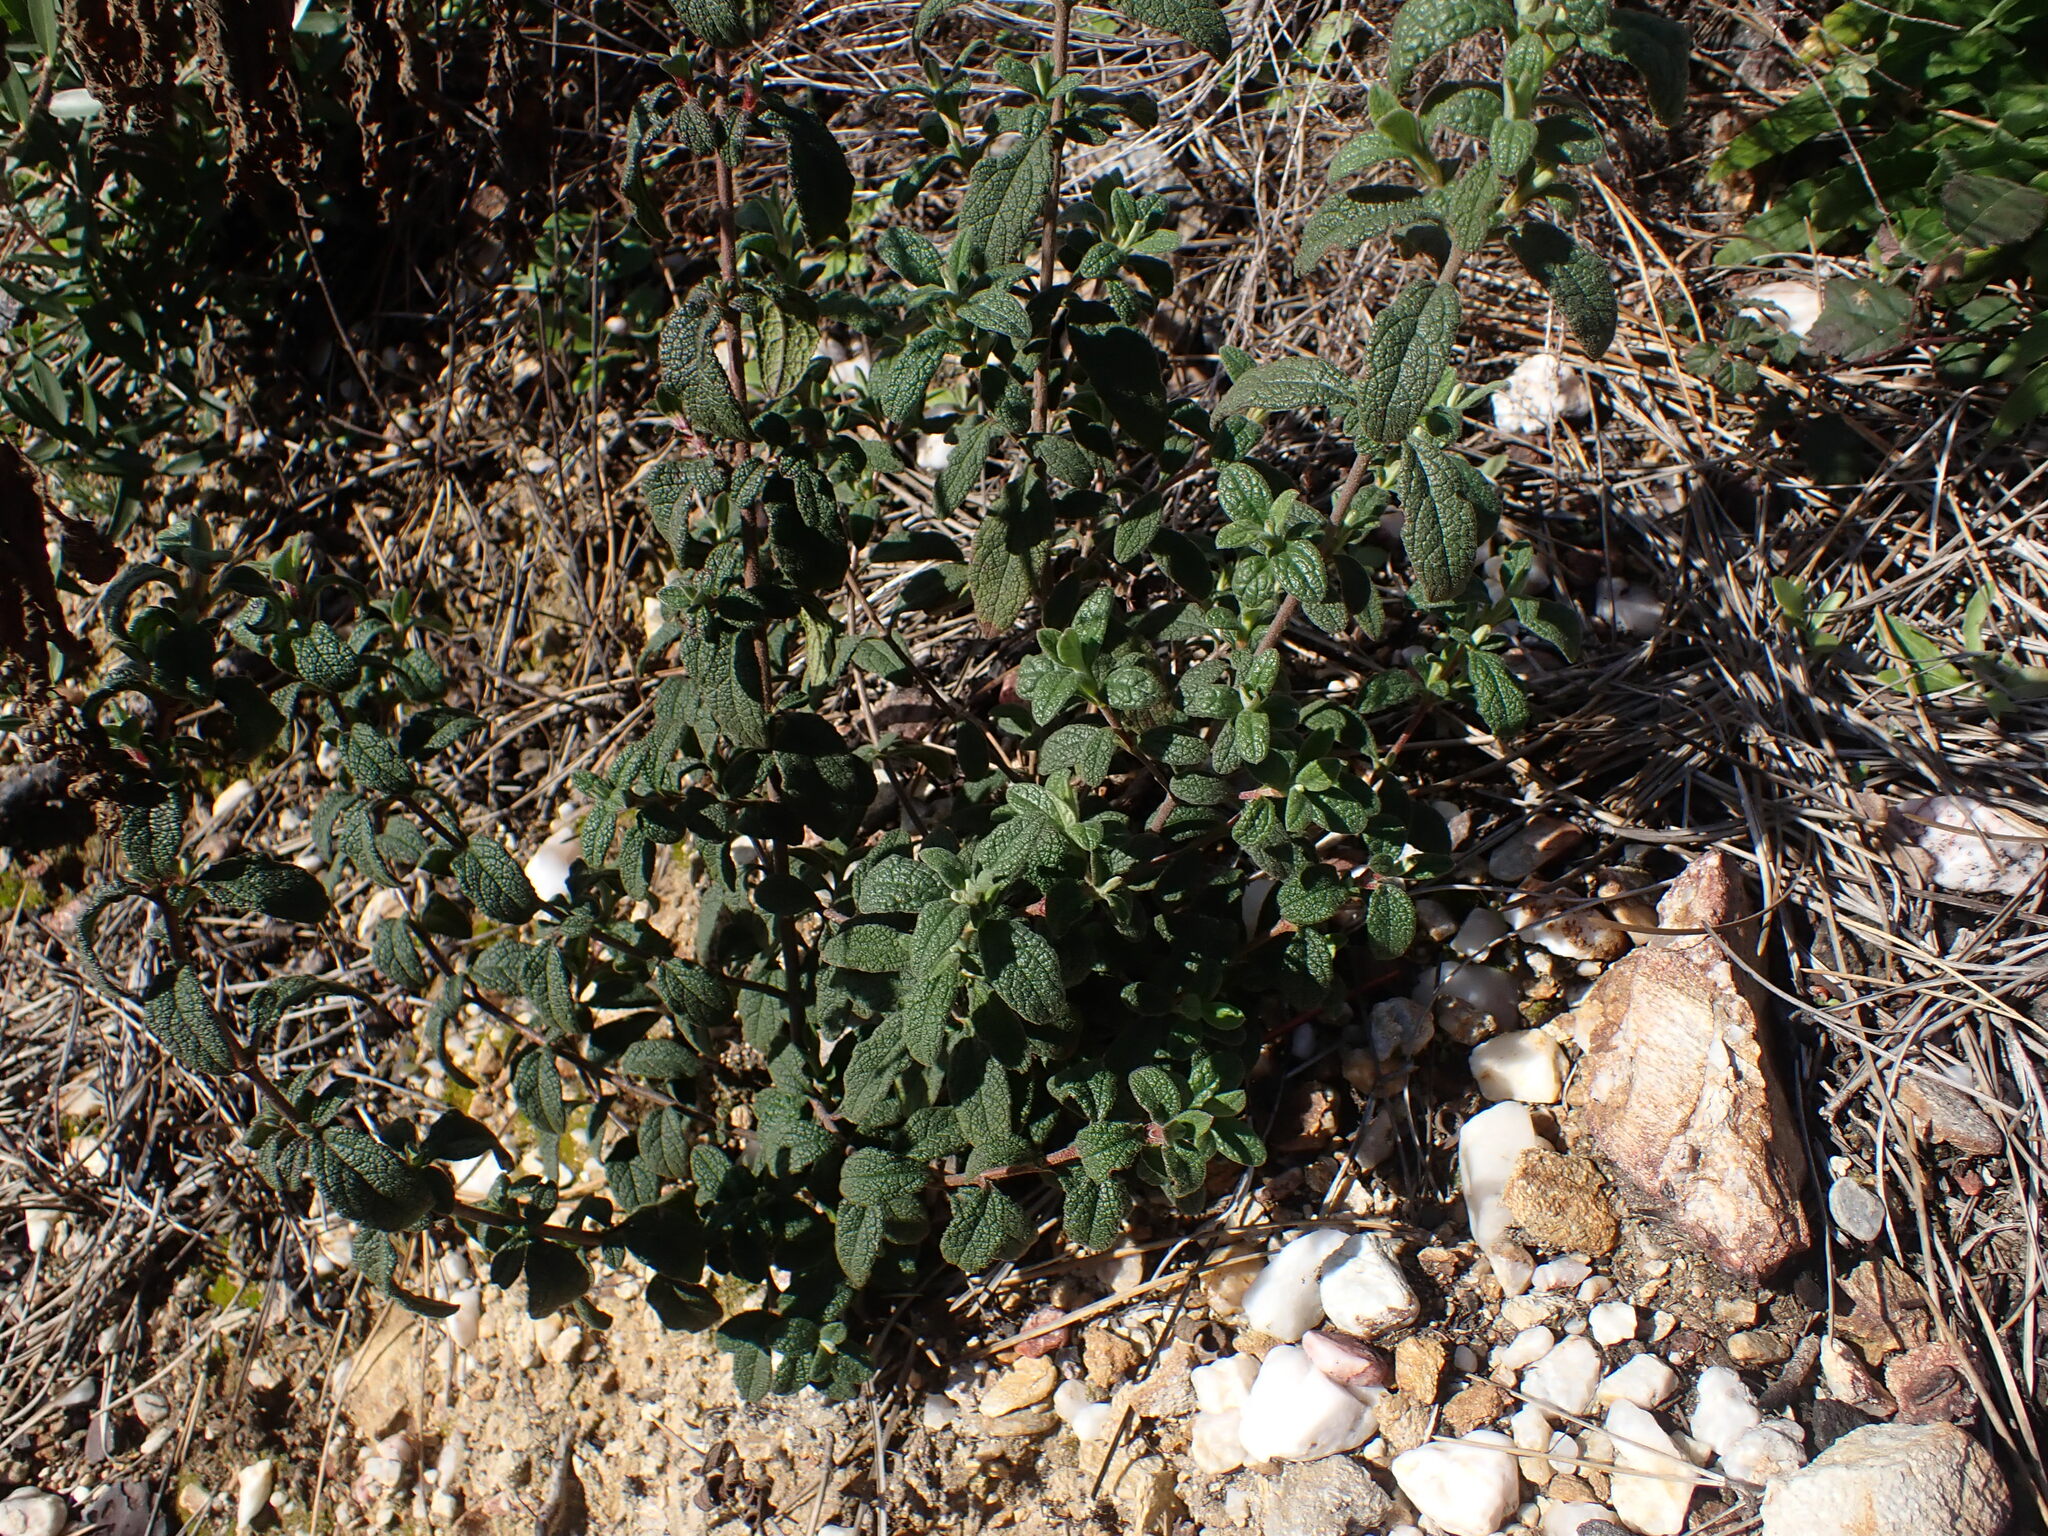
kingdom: Plantae
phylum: Tracheophyta
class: Magnoliopsida
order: Malvales
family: Cistaceae
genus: Cistus
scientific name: Cistus salviifolius
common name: Salvia cistus
